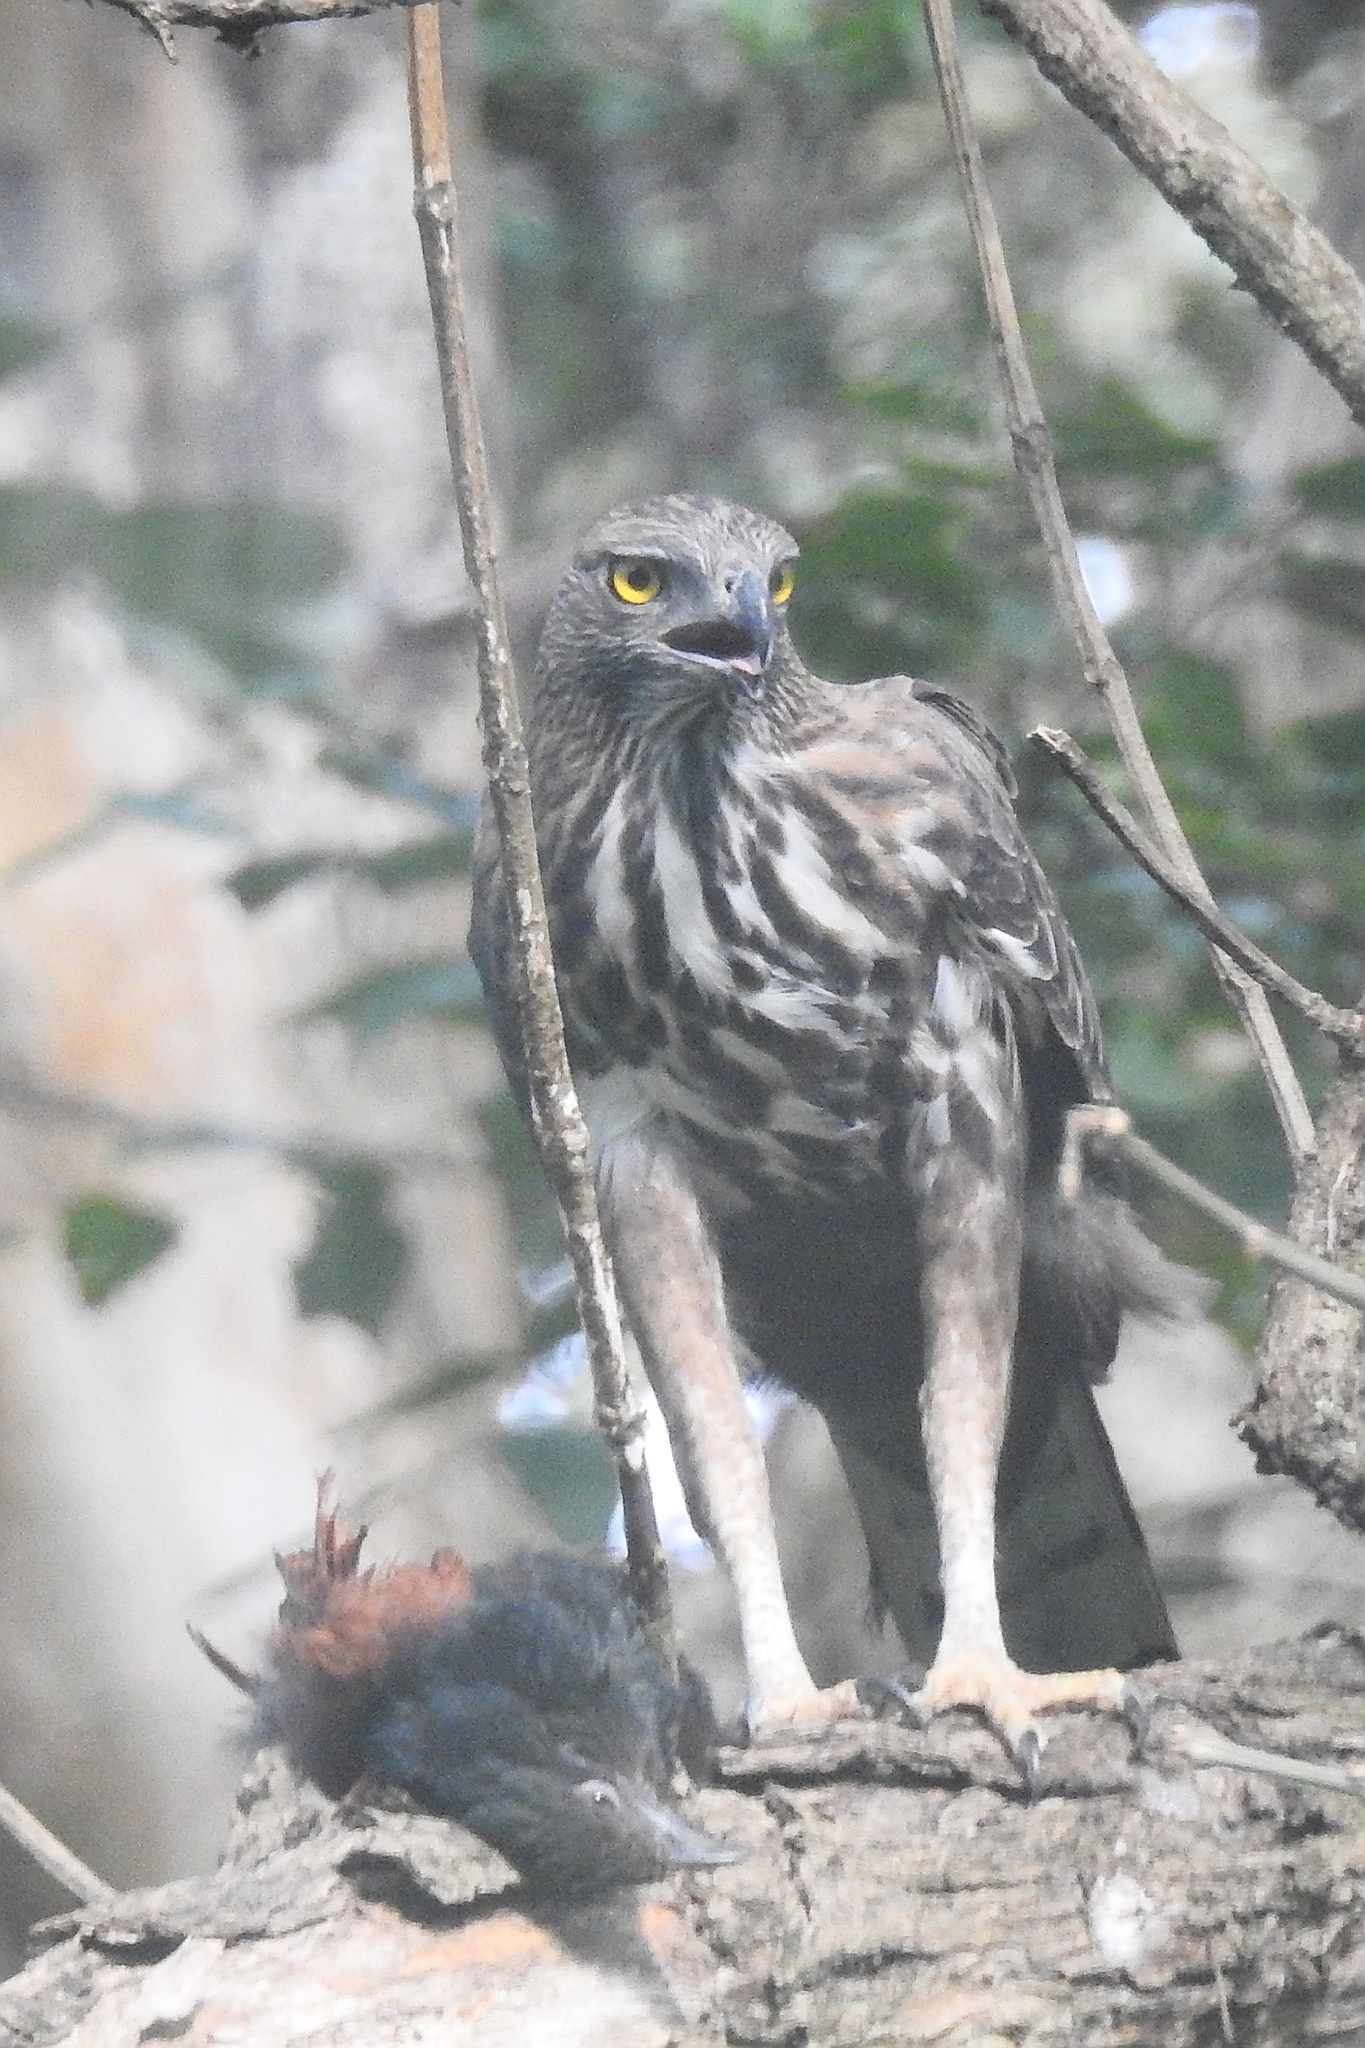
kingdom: Animalia
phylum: Chordata
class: Aves
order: Accipitriformes
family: Accipitridae
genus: Nisaetus
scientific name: Nisaetus cirrhatus
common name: Changeable hawk-eagle
